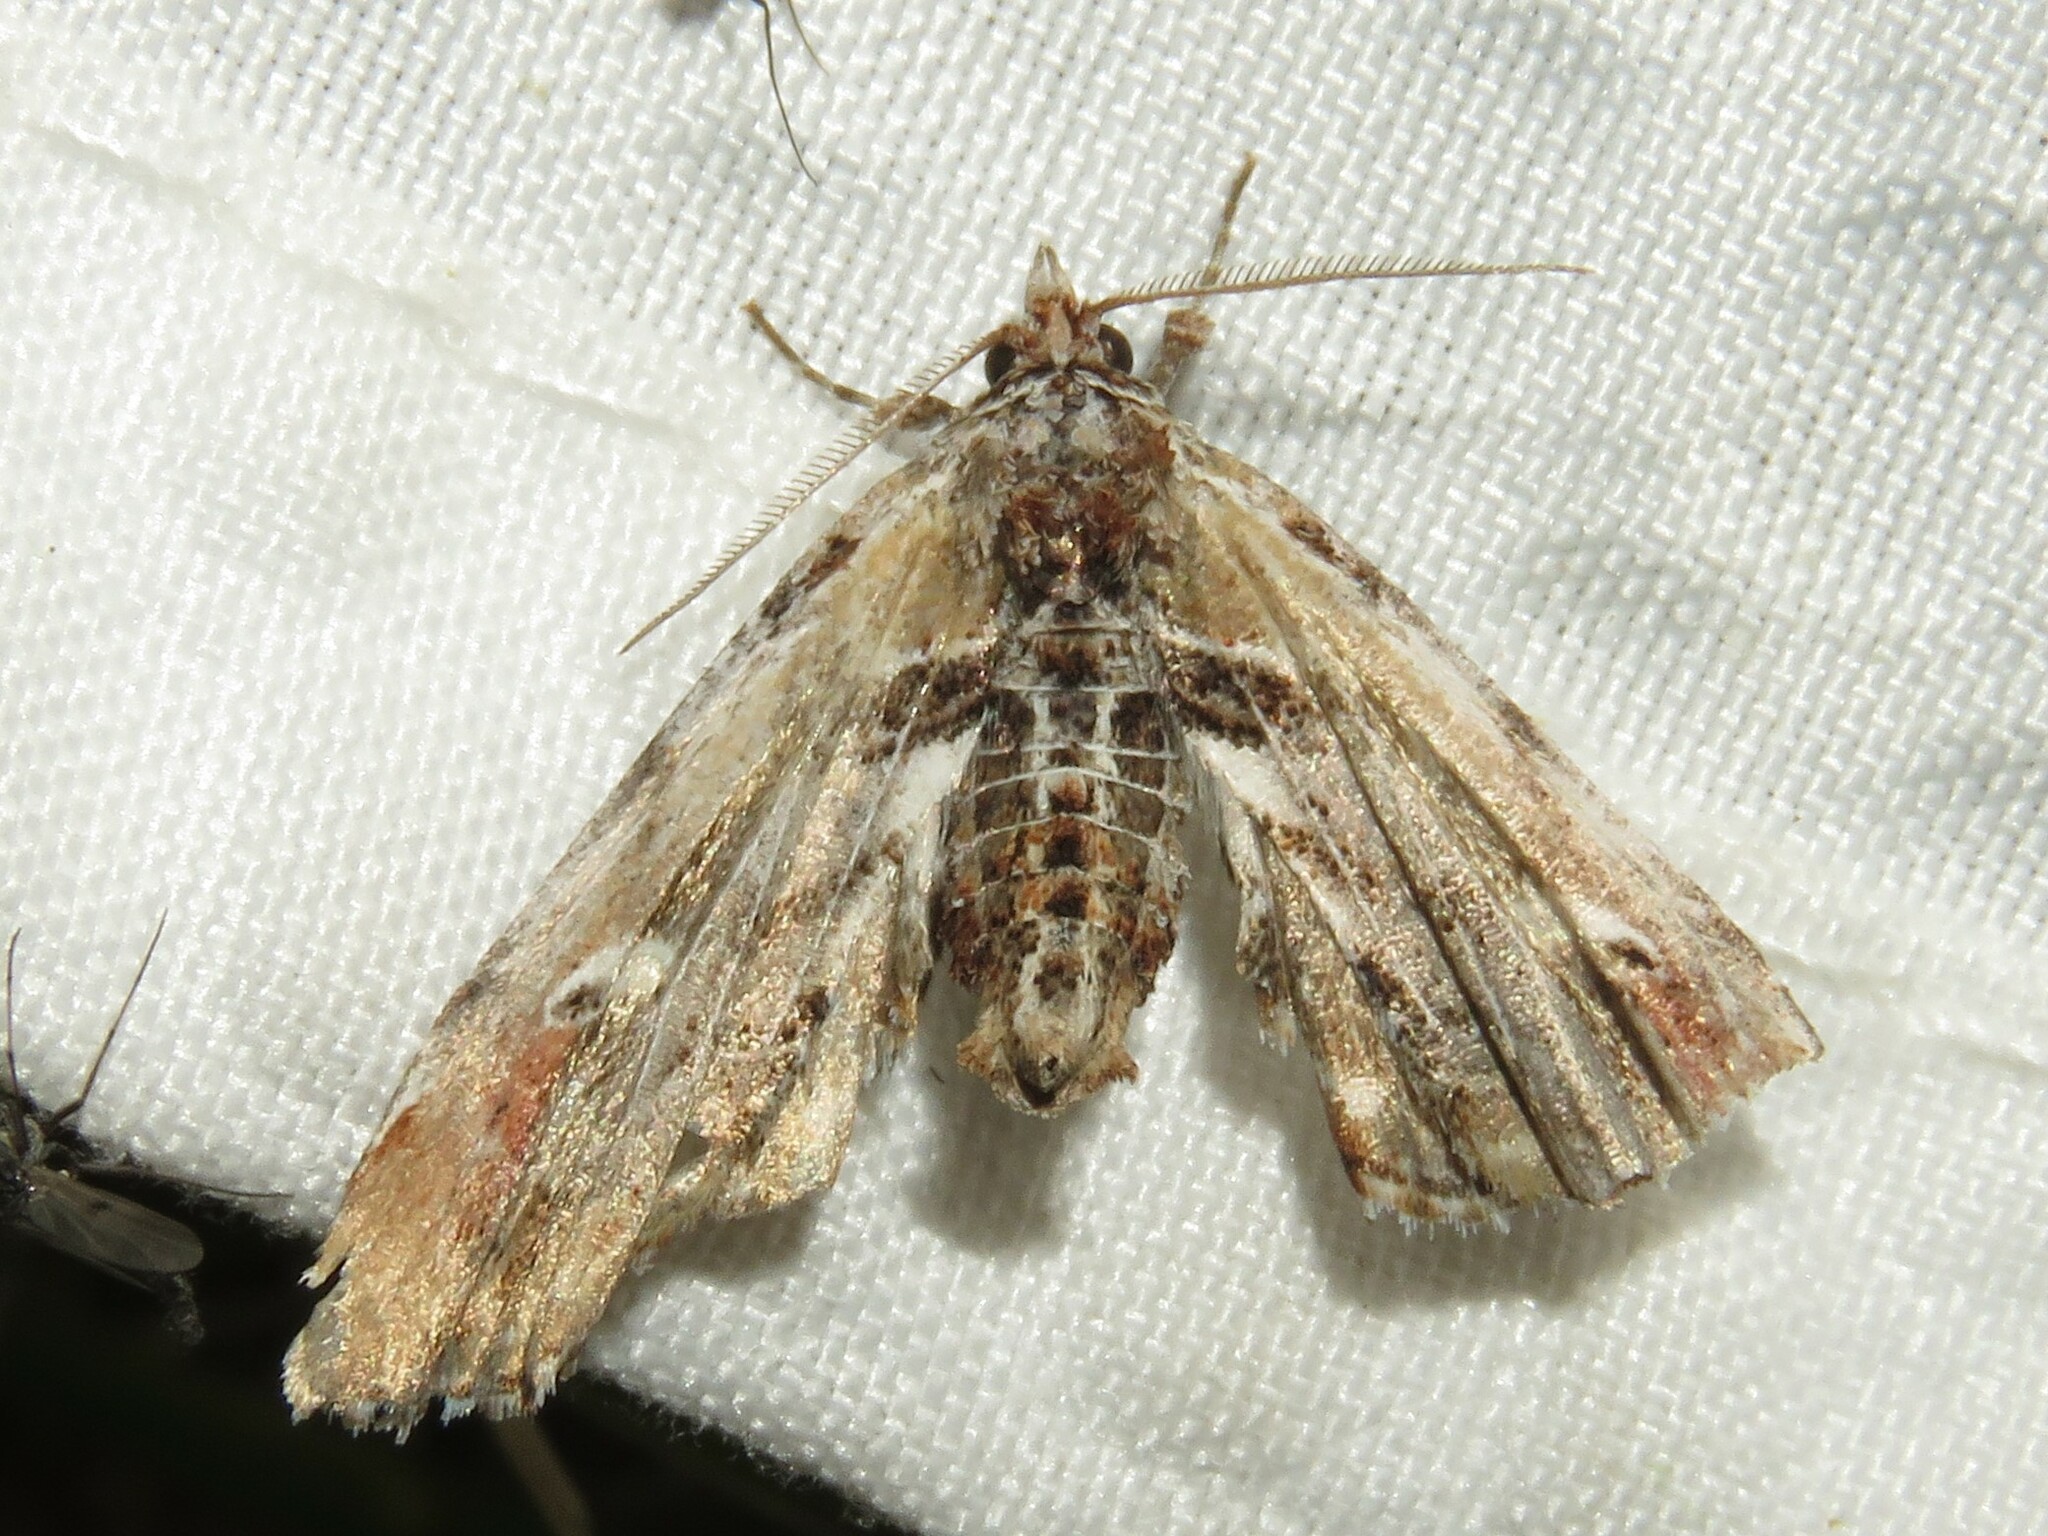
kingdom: Animalia
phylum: Arthropoda
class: Insecta
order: Lepidoptera
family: Euteliidae
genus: Marathyssa
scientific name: Marathyssa basalis
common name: Light marathyssa moth
